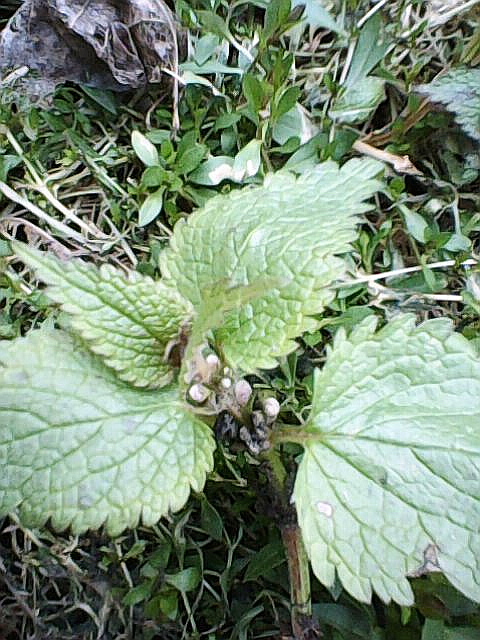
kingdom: Plantae
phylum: Tracheophyta
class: Magnoliopsida
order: Lamiales
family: Lamiaceae
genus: Lamium
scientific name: Lamium album
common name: White dead-nettle
